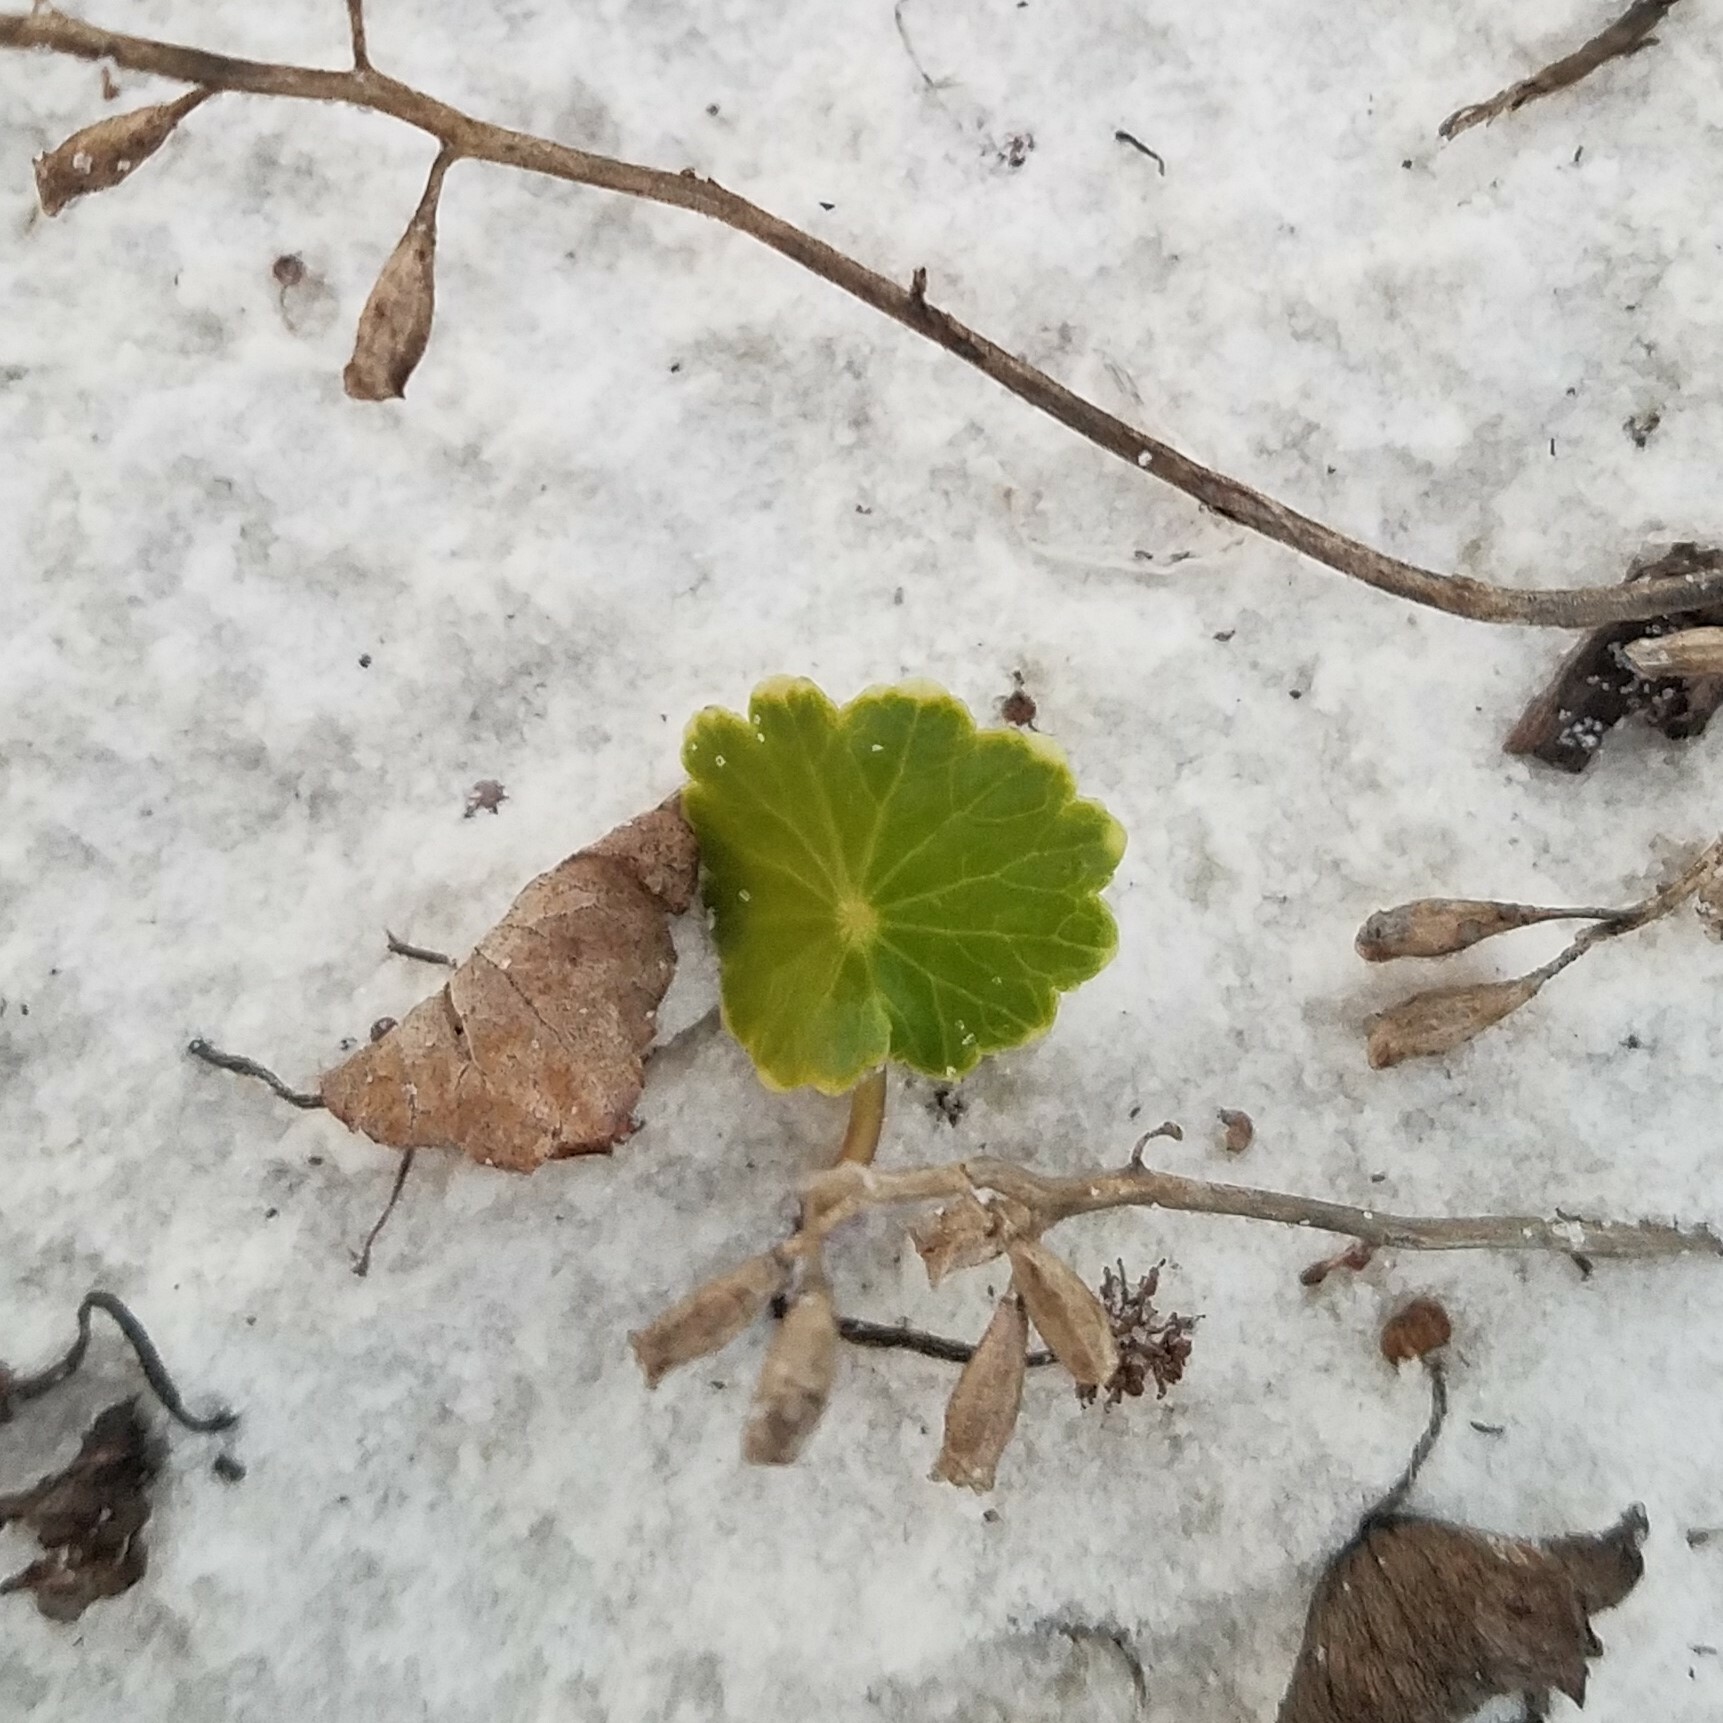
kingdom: Plantae
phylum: Tracheophyta
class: Magnoliopsida
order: Apiales
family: Araliaceae
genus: Hydrocotyle
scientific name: Hydrocotyle bonariensis
